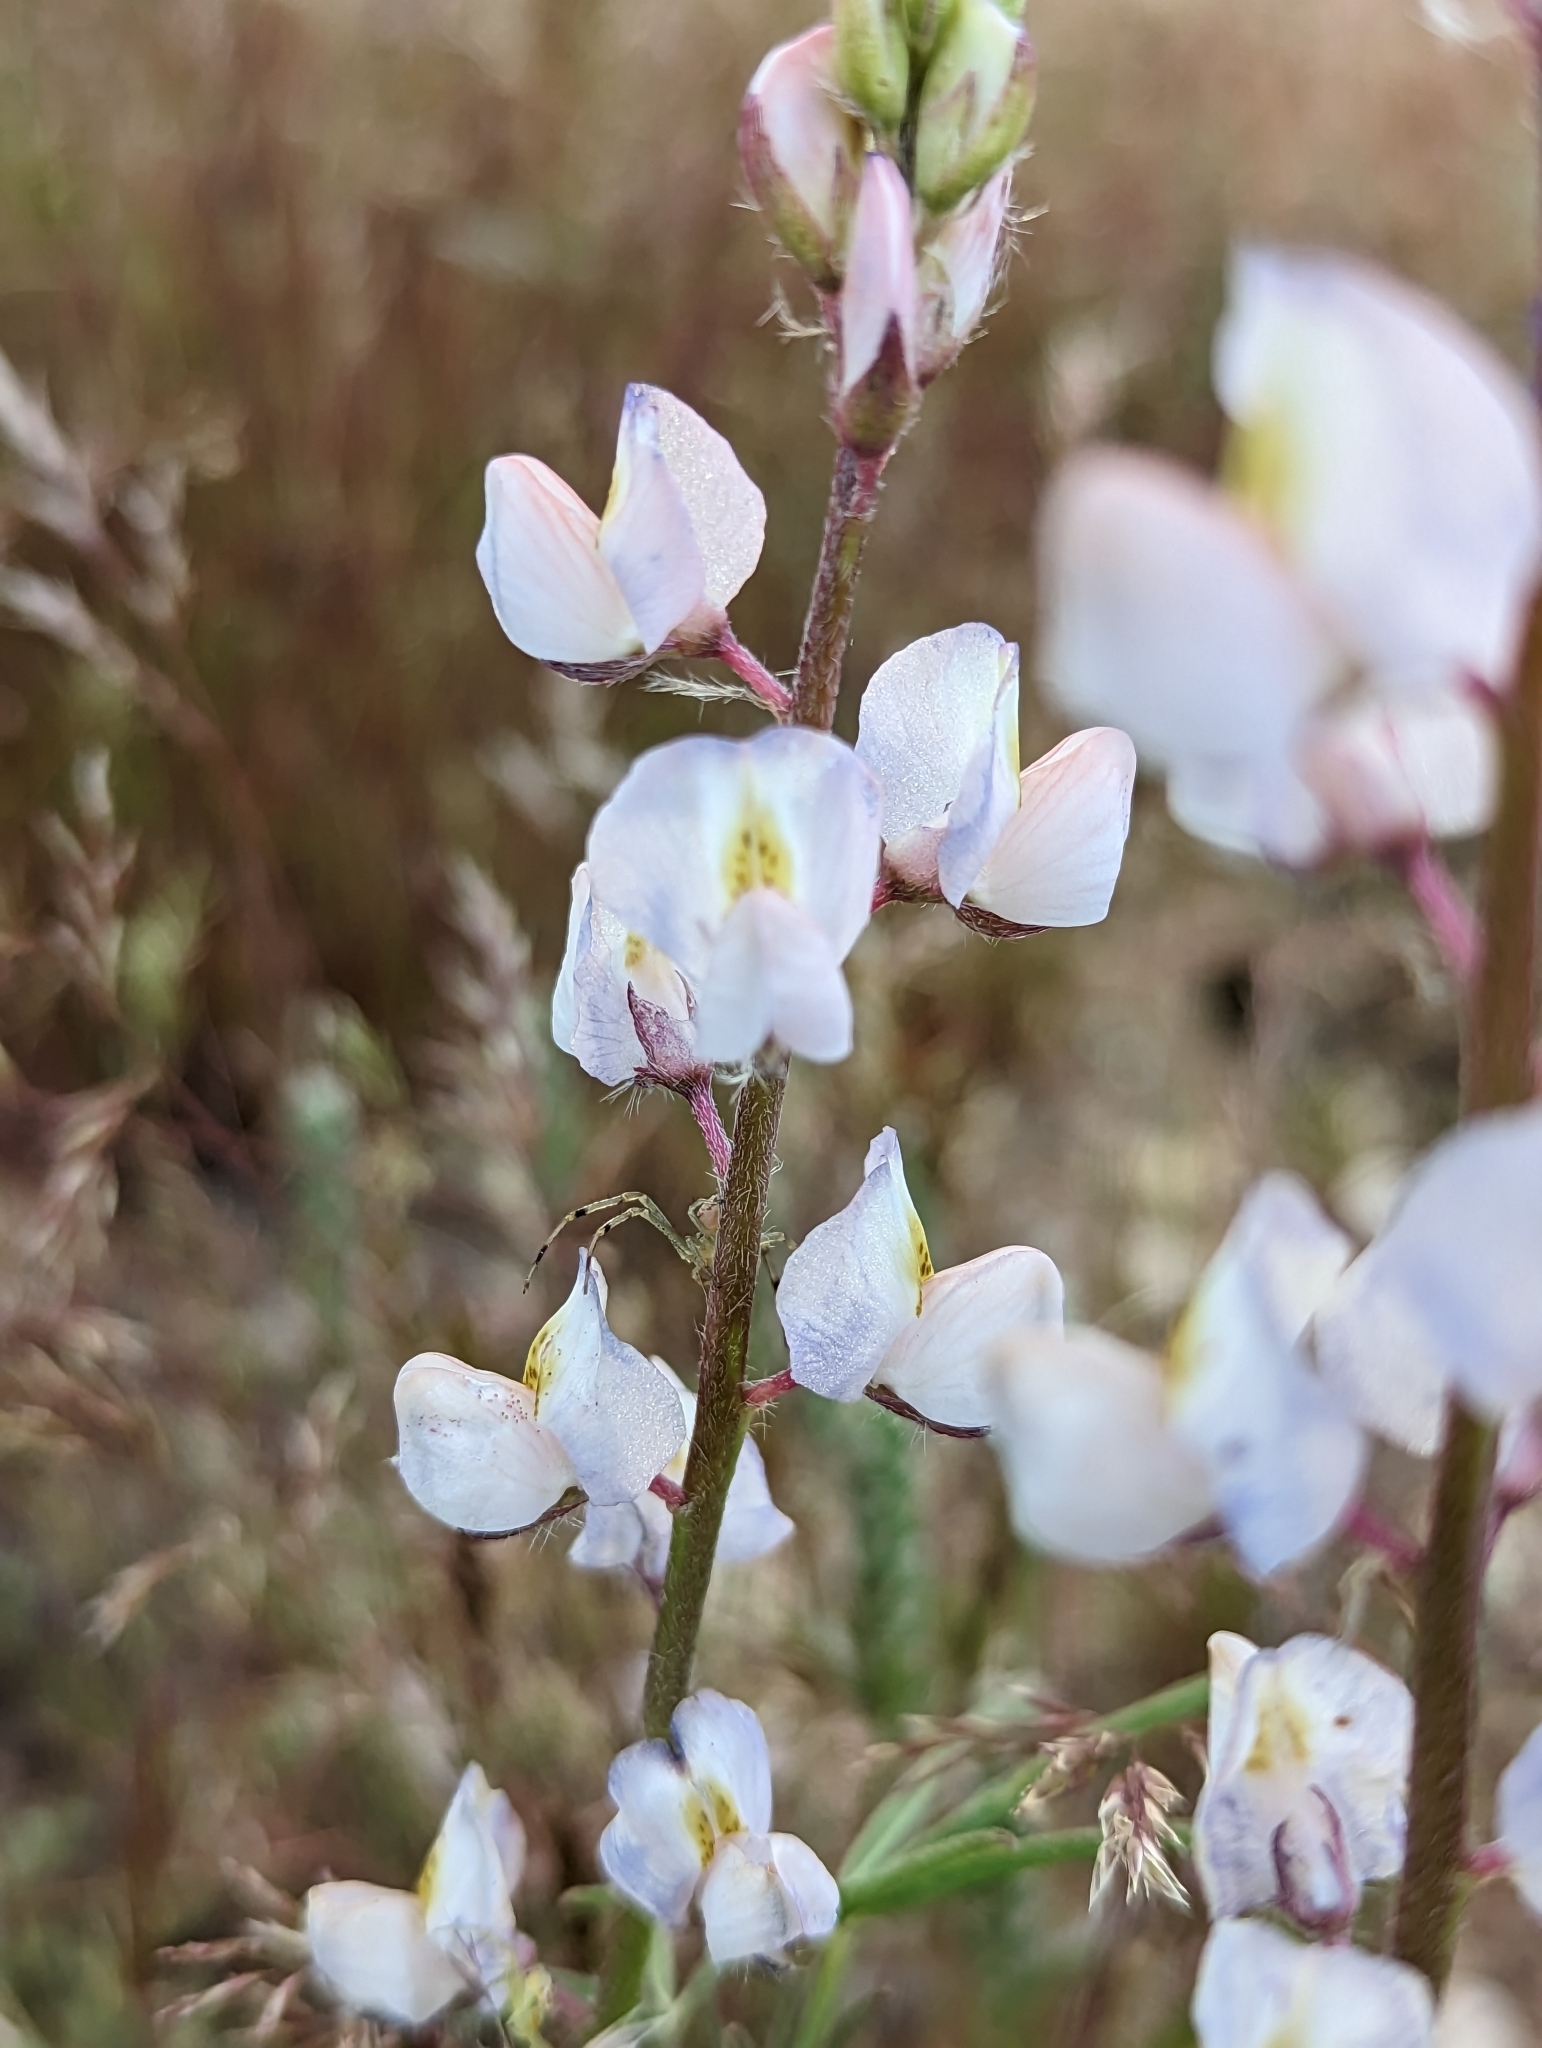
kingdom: Plantae
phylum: Tracheophyta
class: Magnoliopsida
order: Fabales
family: Fabaceae
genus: Lupinus
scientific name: Lupinus sparsiflorus
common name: Coulter's lupine
